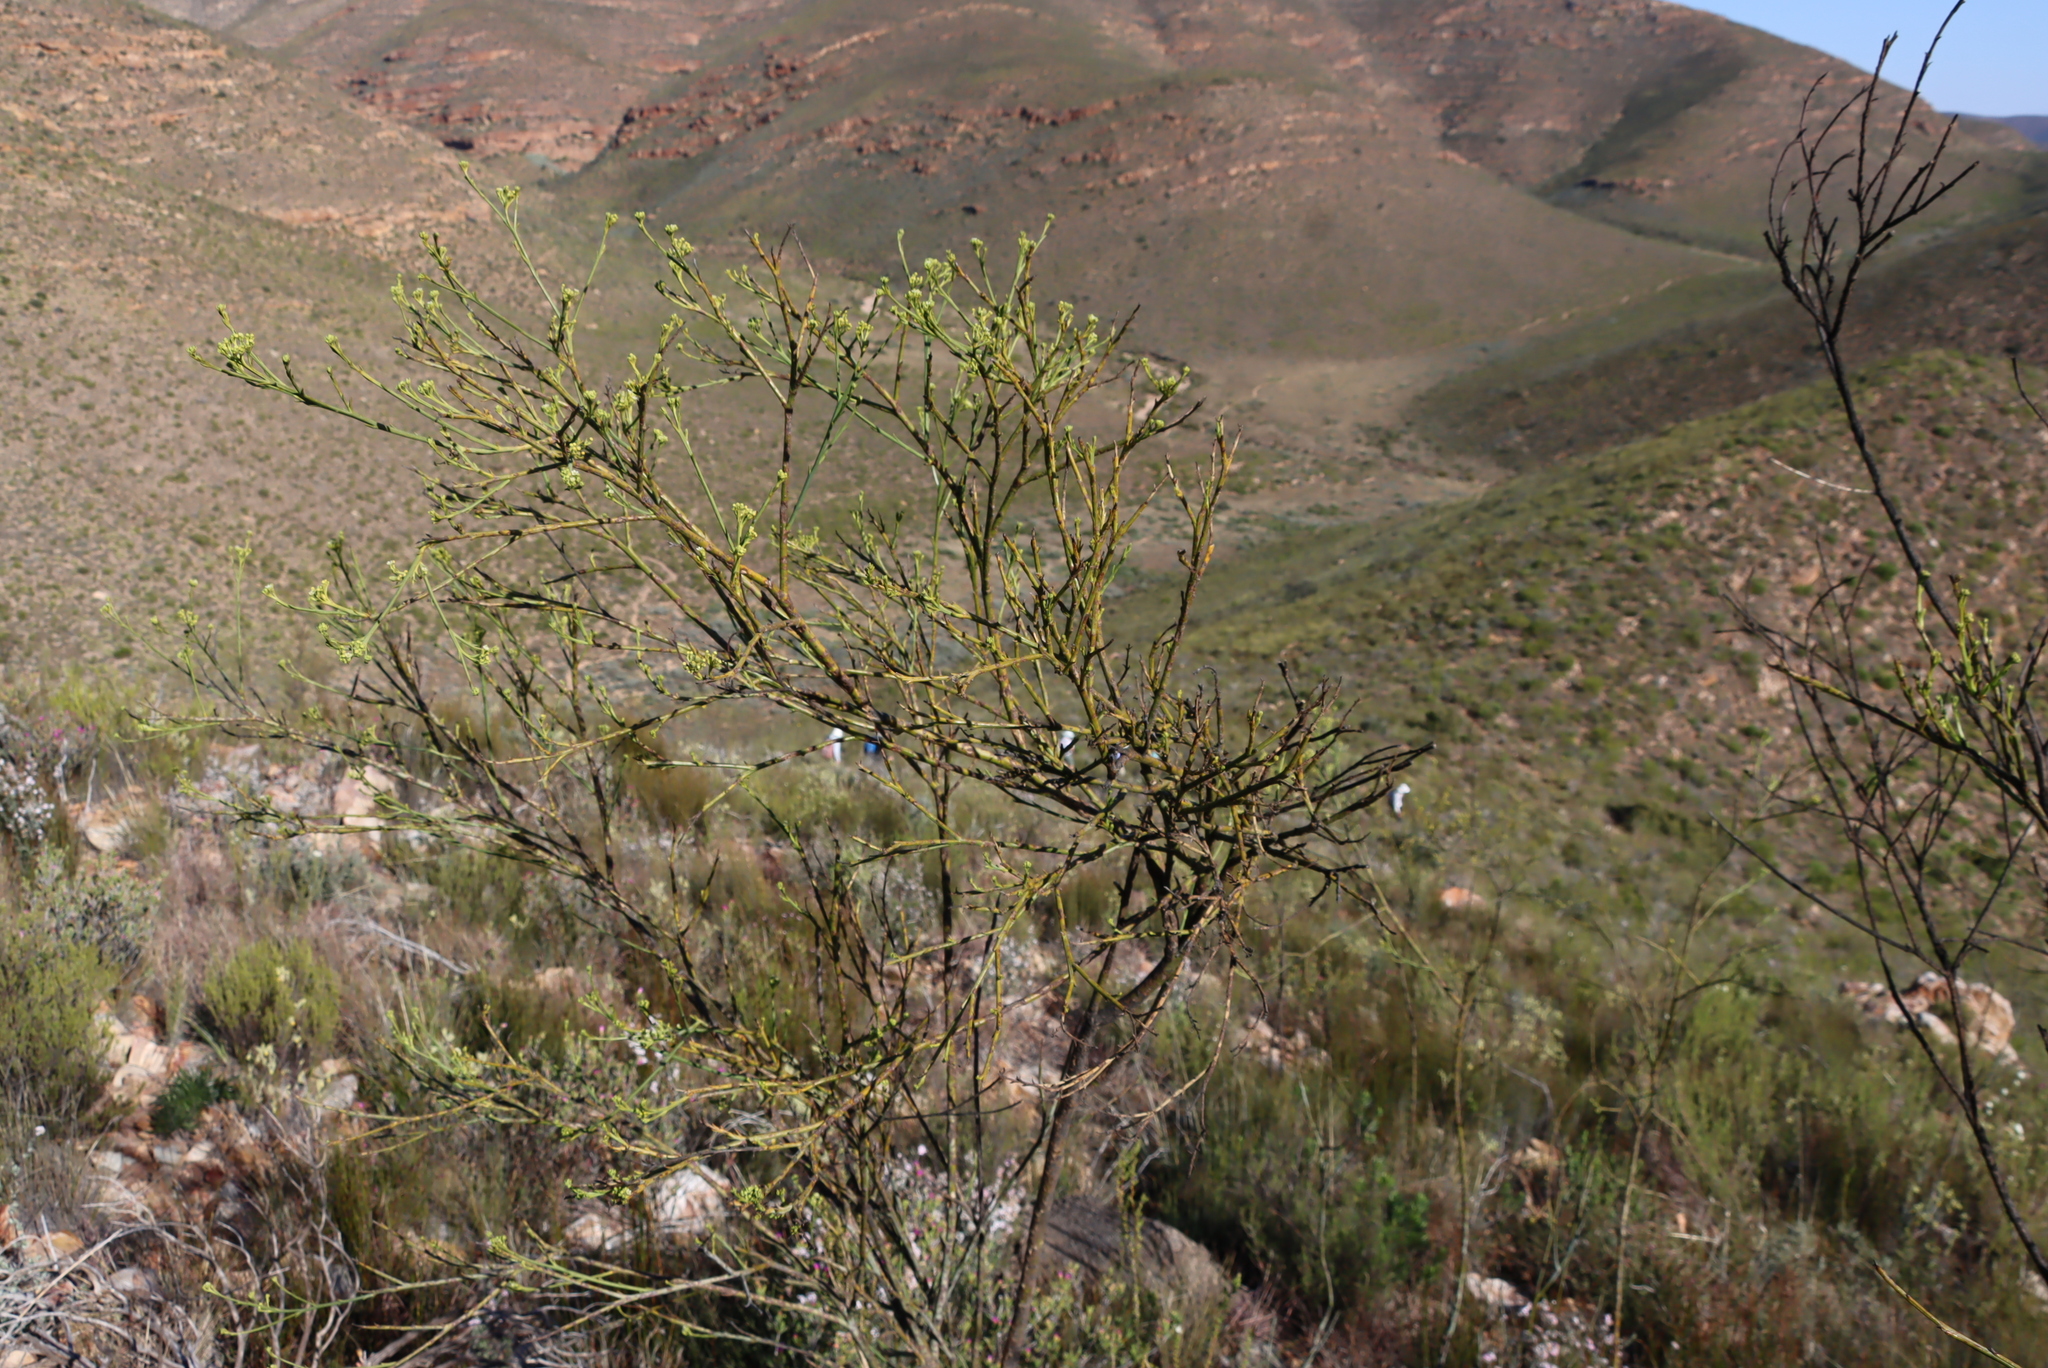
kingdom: Plantae
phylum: Tracheophyta
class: Magnoliopsida
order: Santalales
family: Thesiaceae
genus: Thesium
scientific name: Thesium strictum
